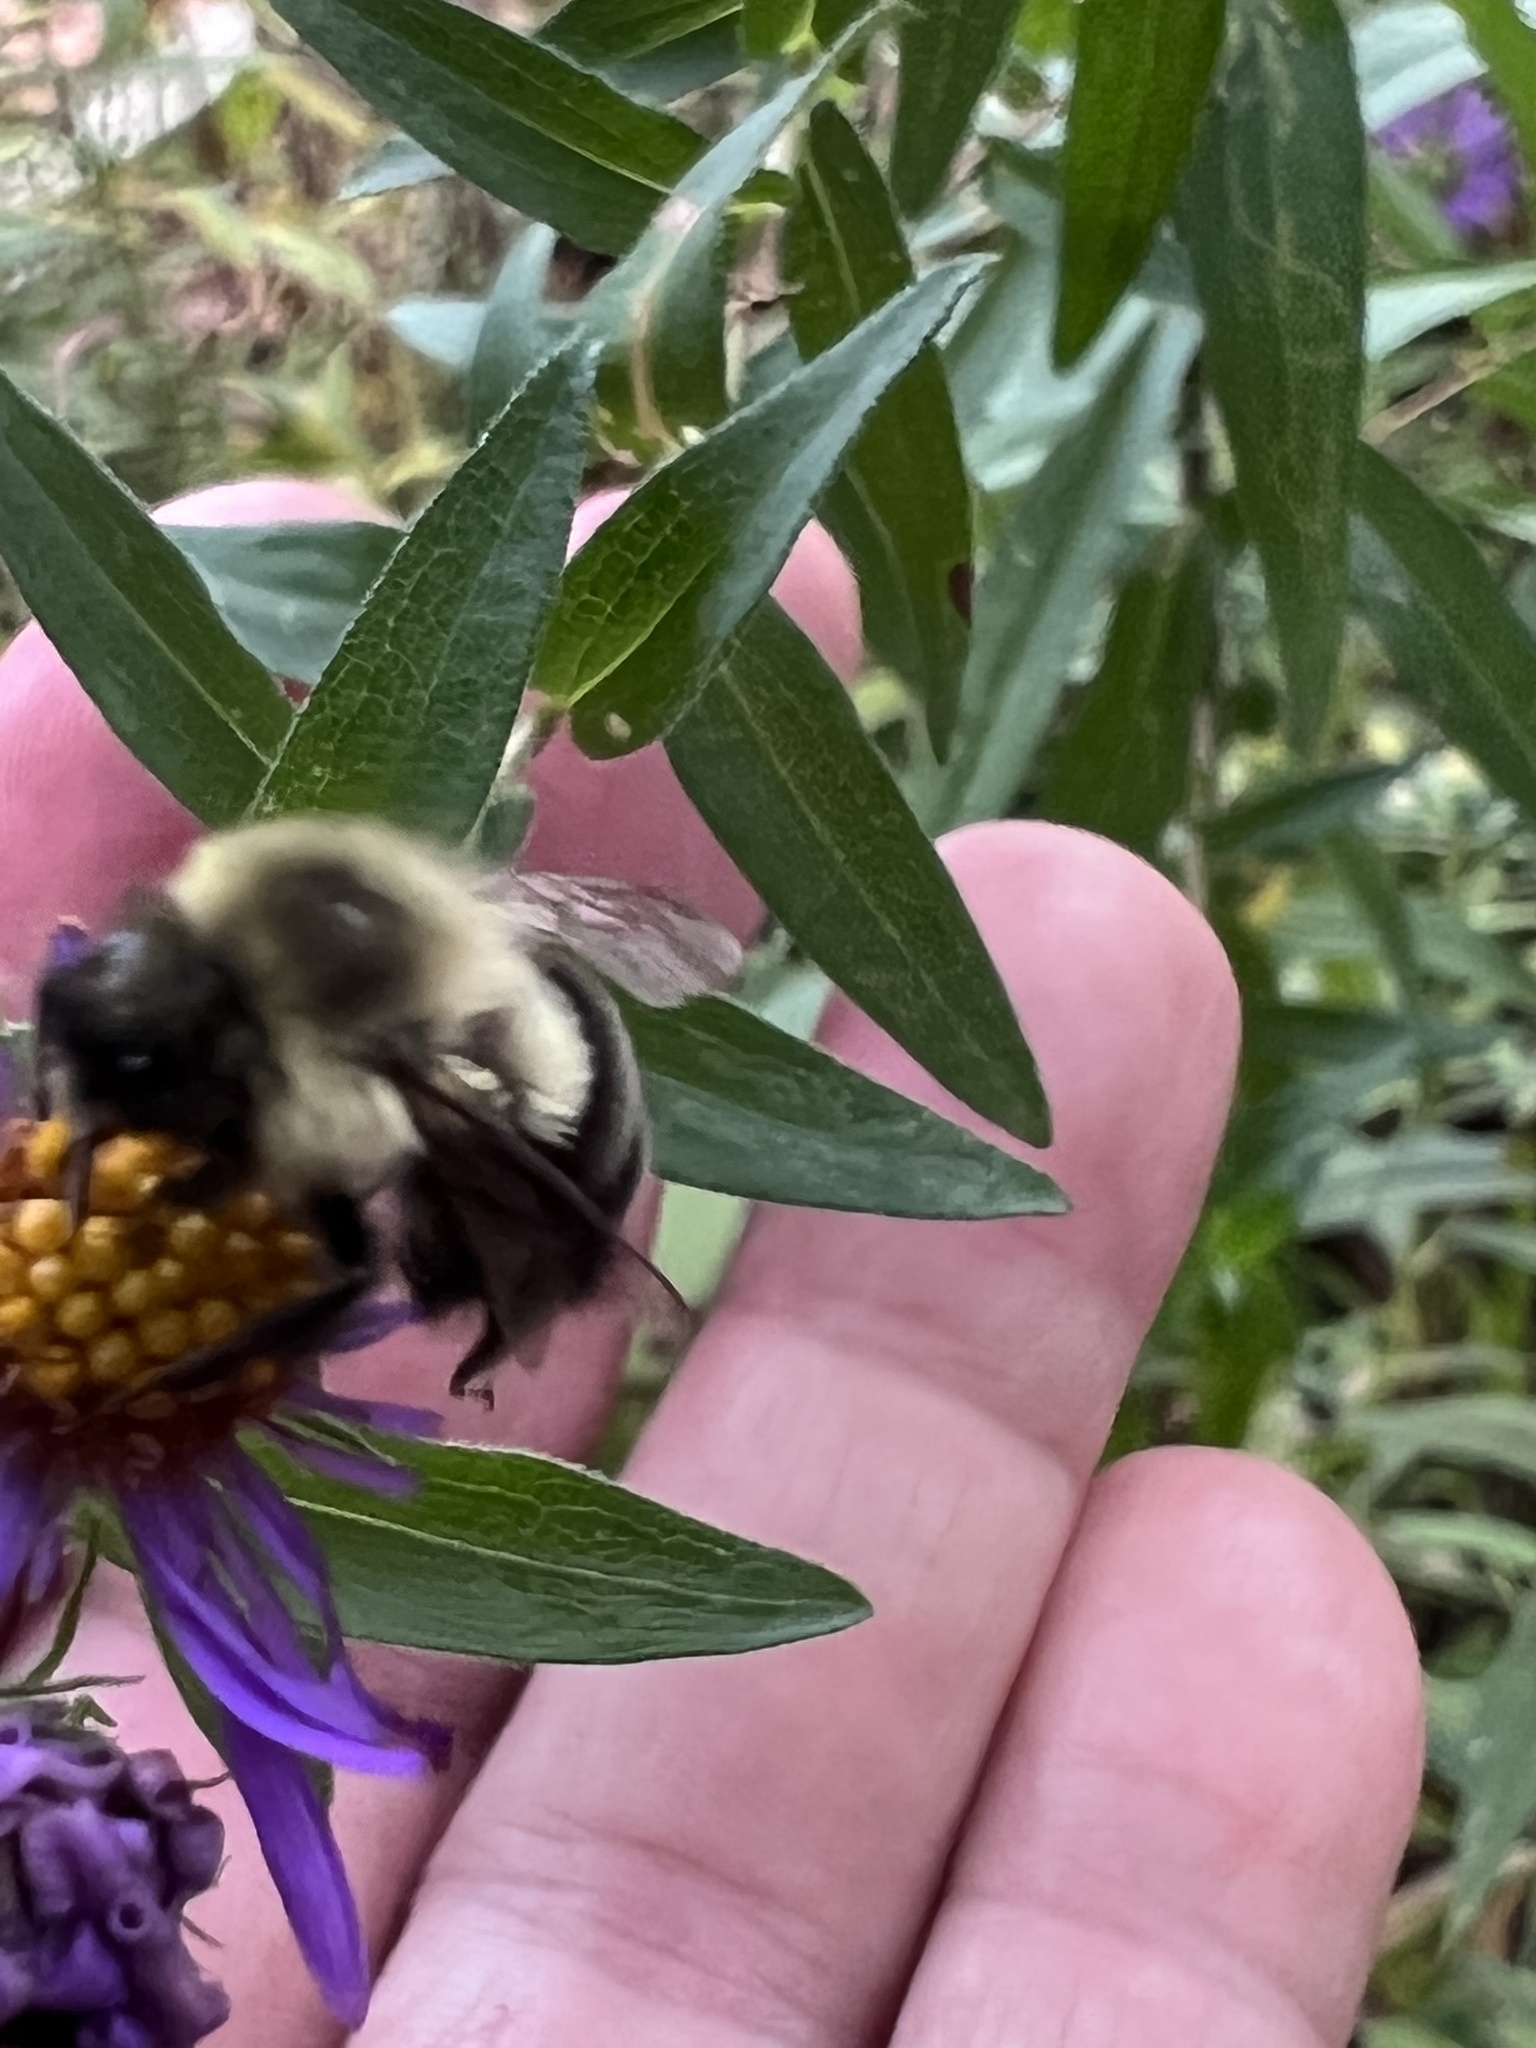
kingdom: Animalia
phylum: Arthropoda
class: Insecta
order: Hymenoptera
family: Apidae
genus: Bombus
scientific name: Bombus impatiens
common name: Common eastern bumble bee
